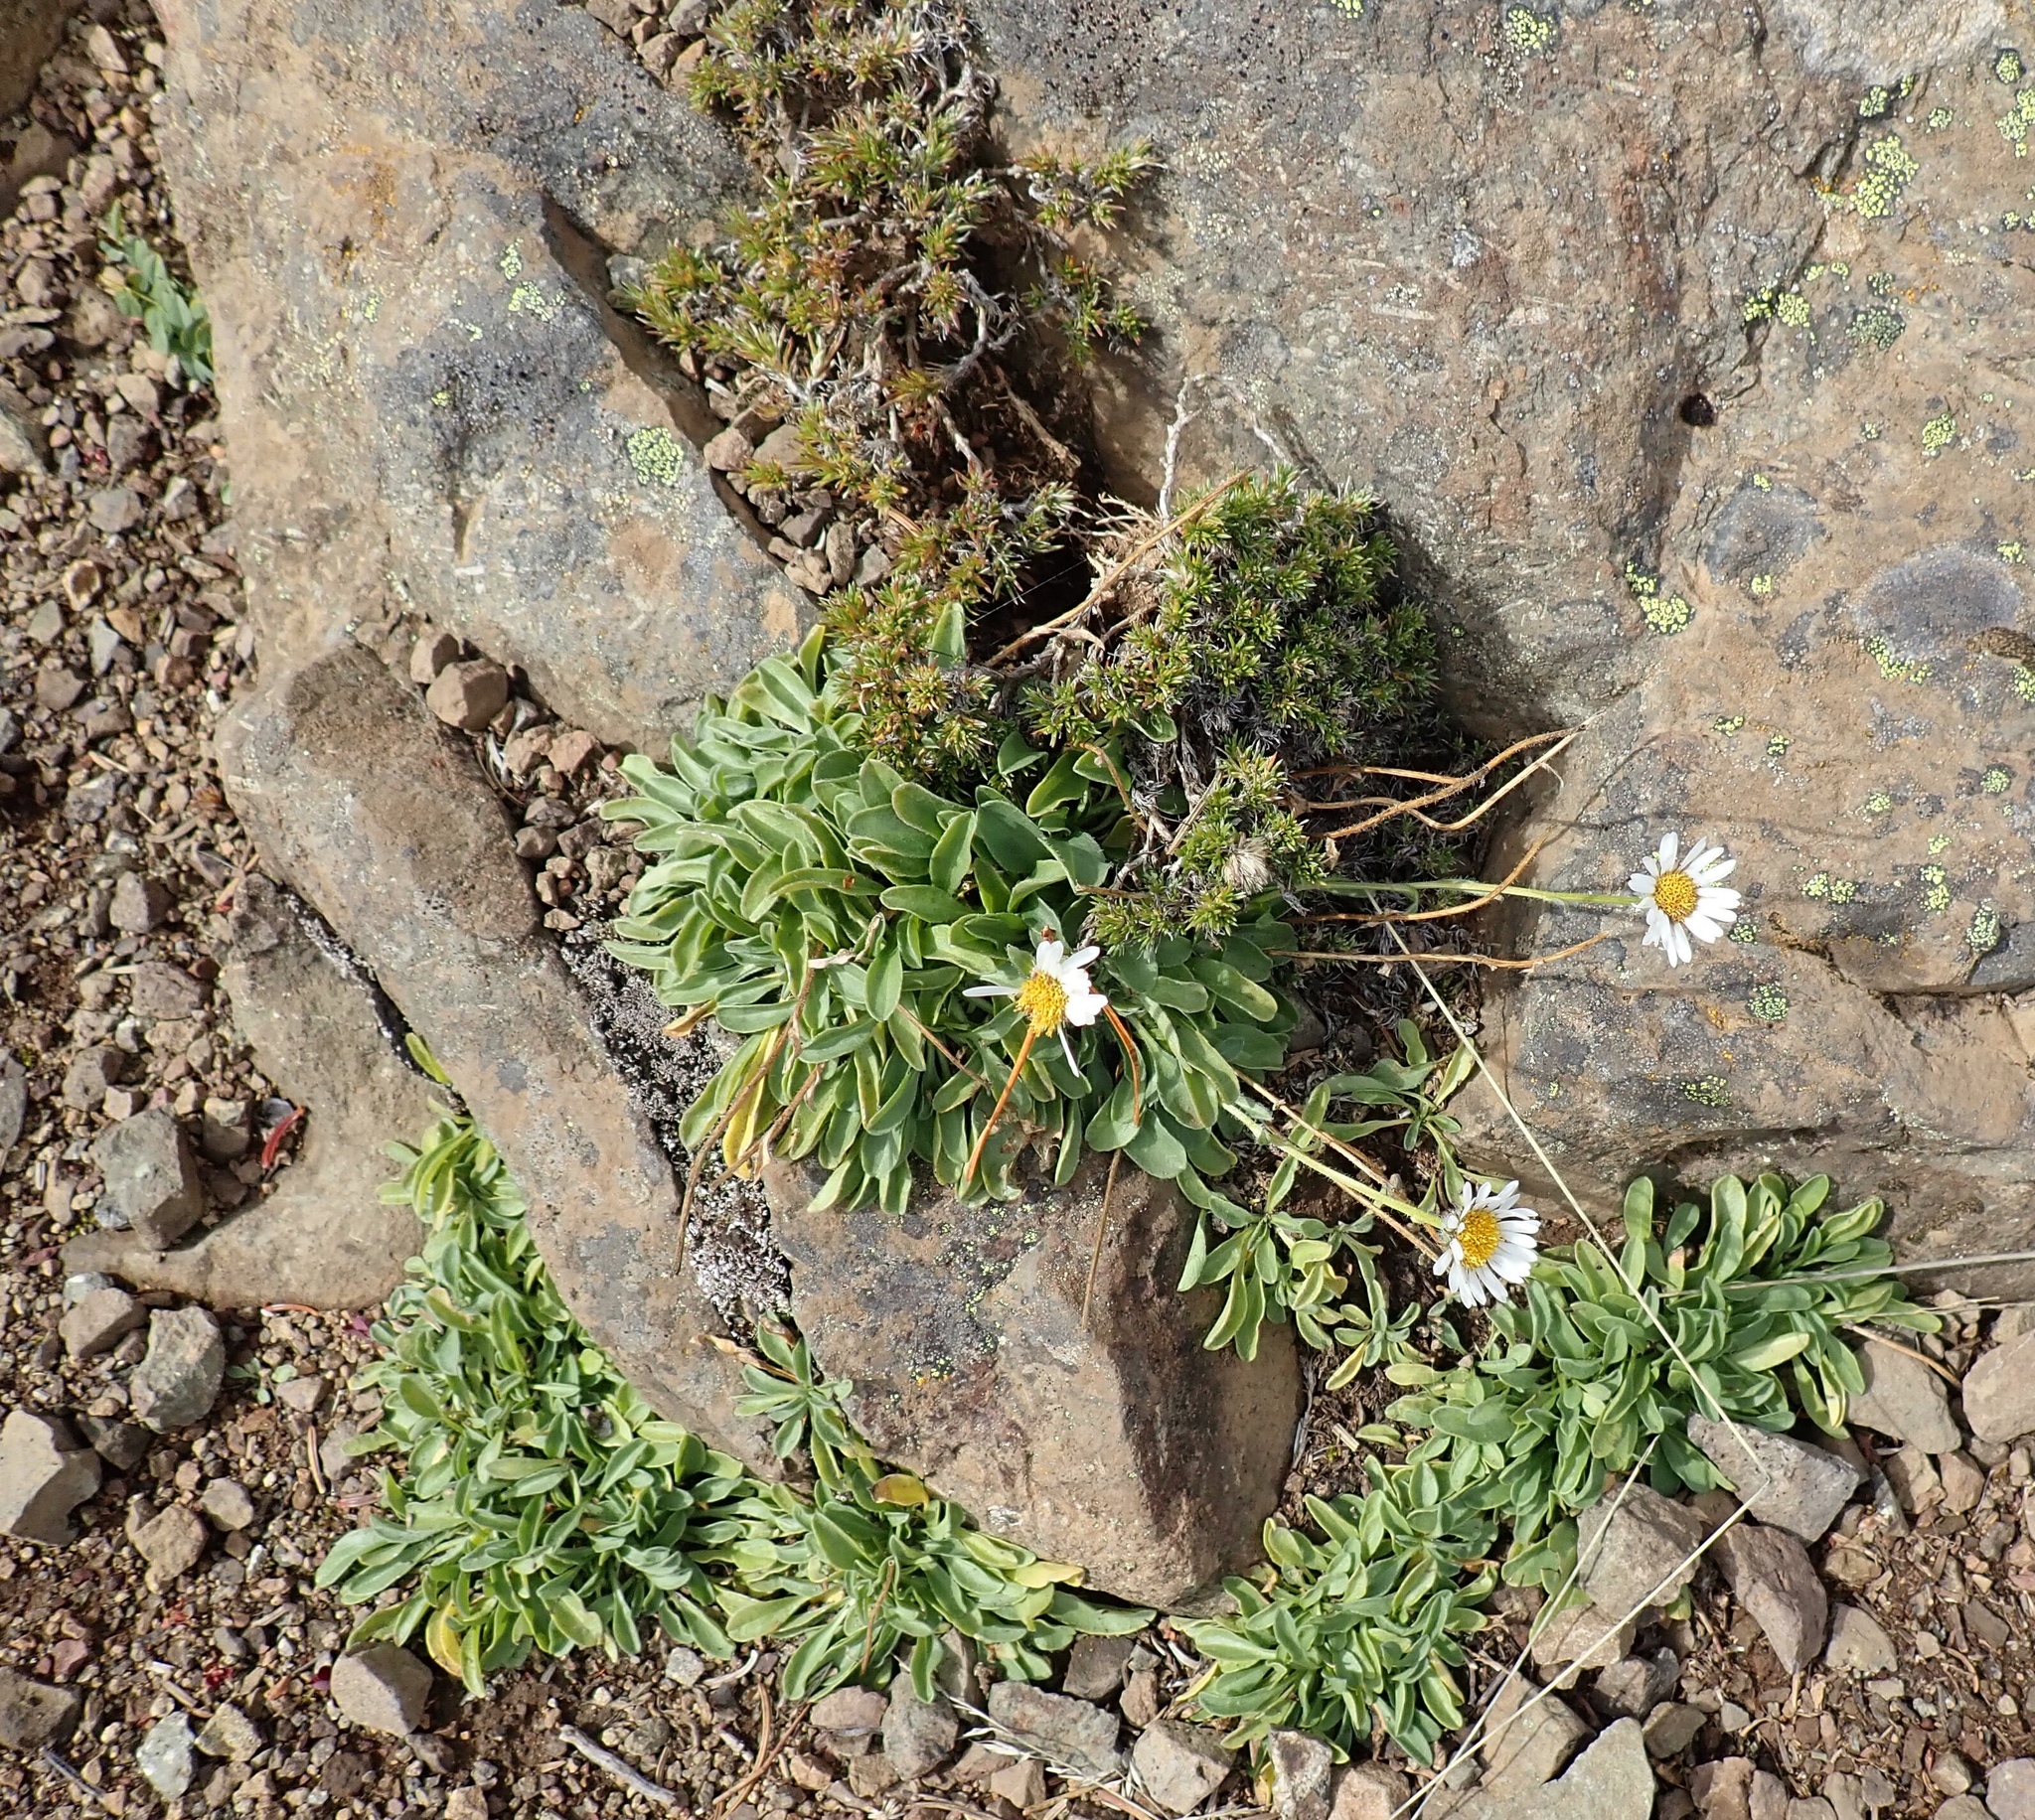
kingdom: Plantae
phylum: Tracheophyta
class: Magnoliopsida
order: Asterales
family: Asteraceae
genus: Erigeron
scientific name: Erigeron flettii
